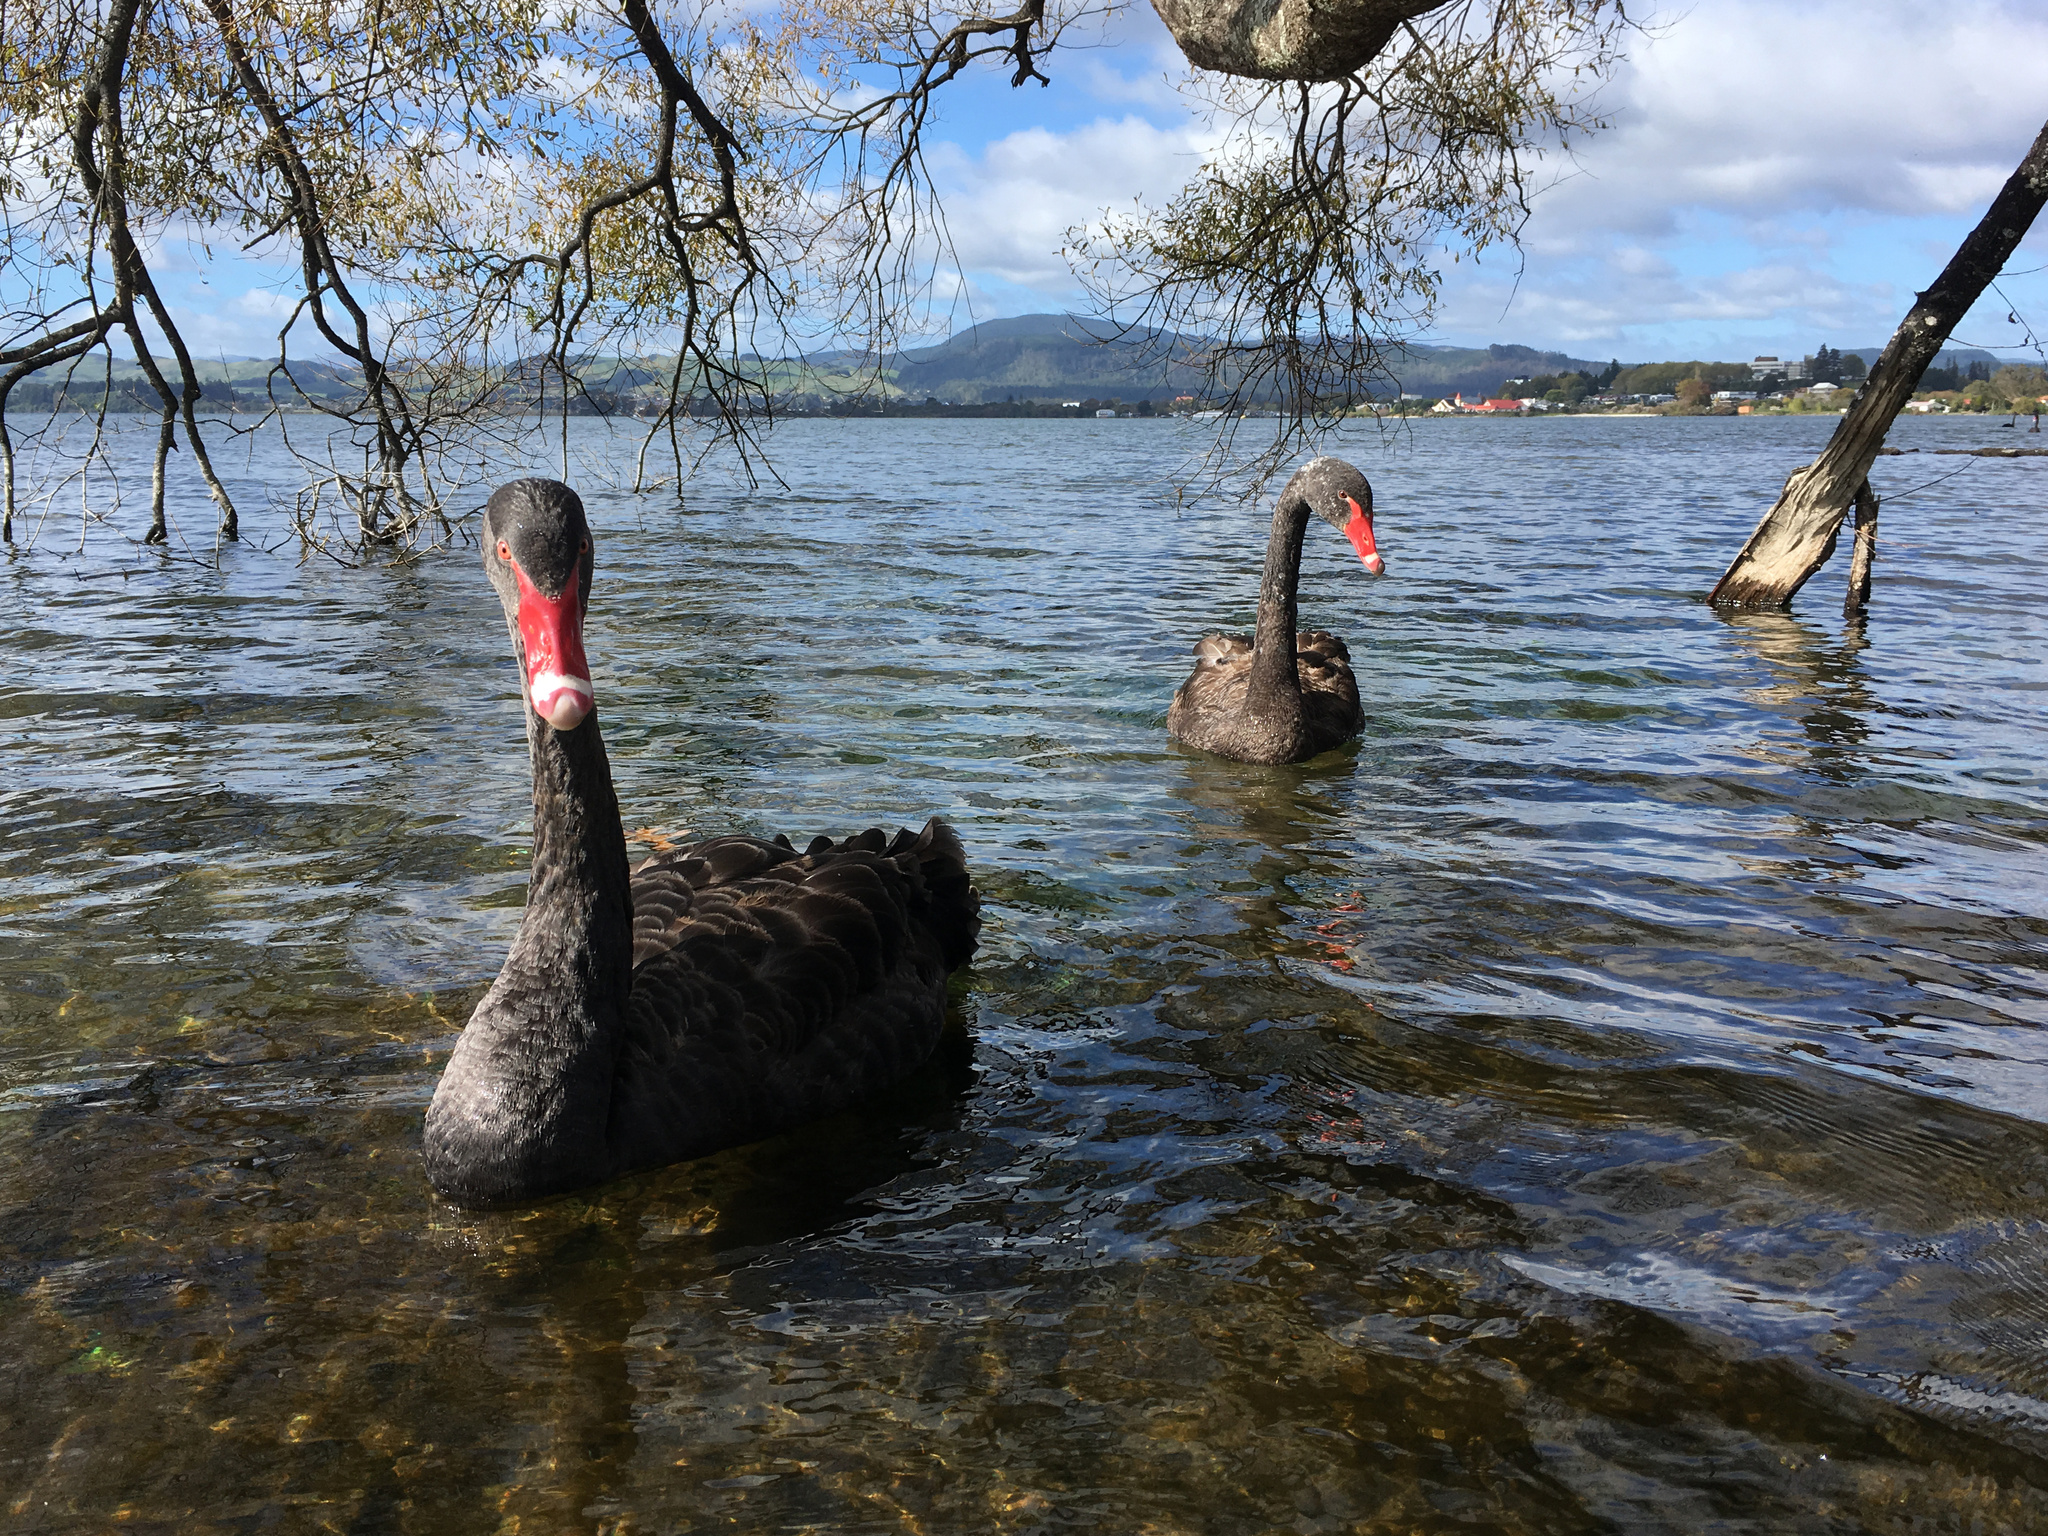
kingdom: Animalia
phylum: Chordata
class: Aves
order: Anseriformes
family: Anatidae
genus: Cygnus
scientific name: Cygnus atratus
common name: Black swan
